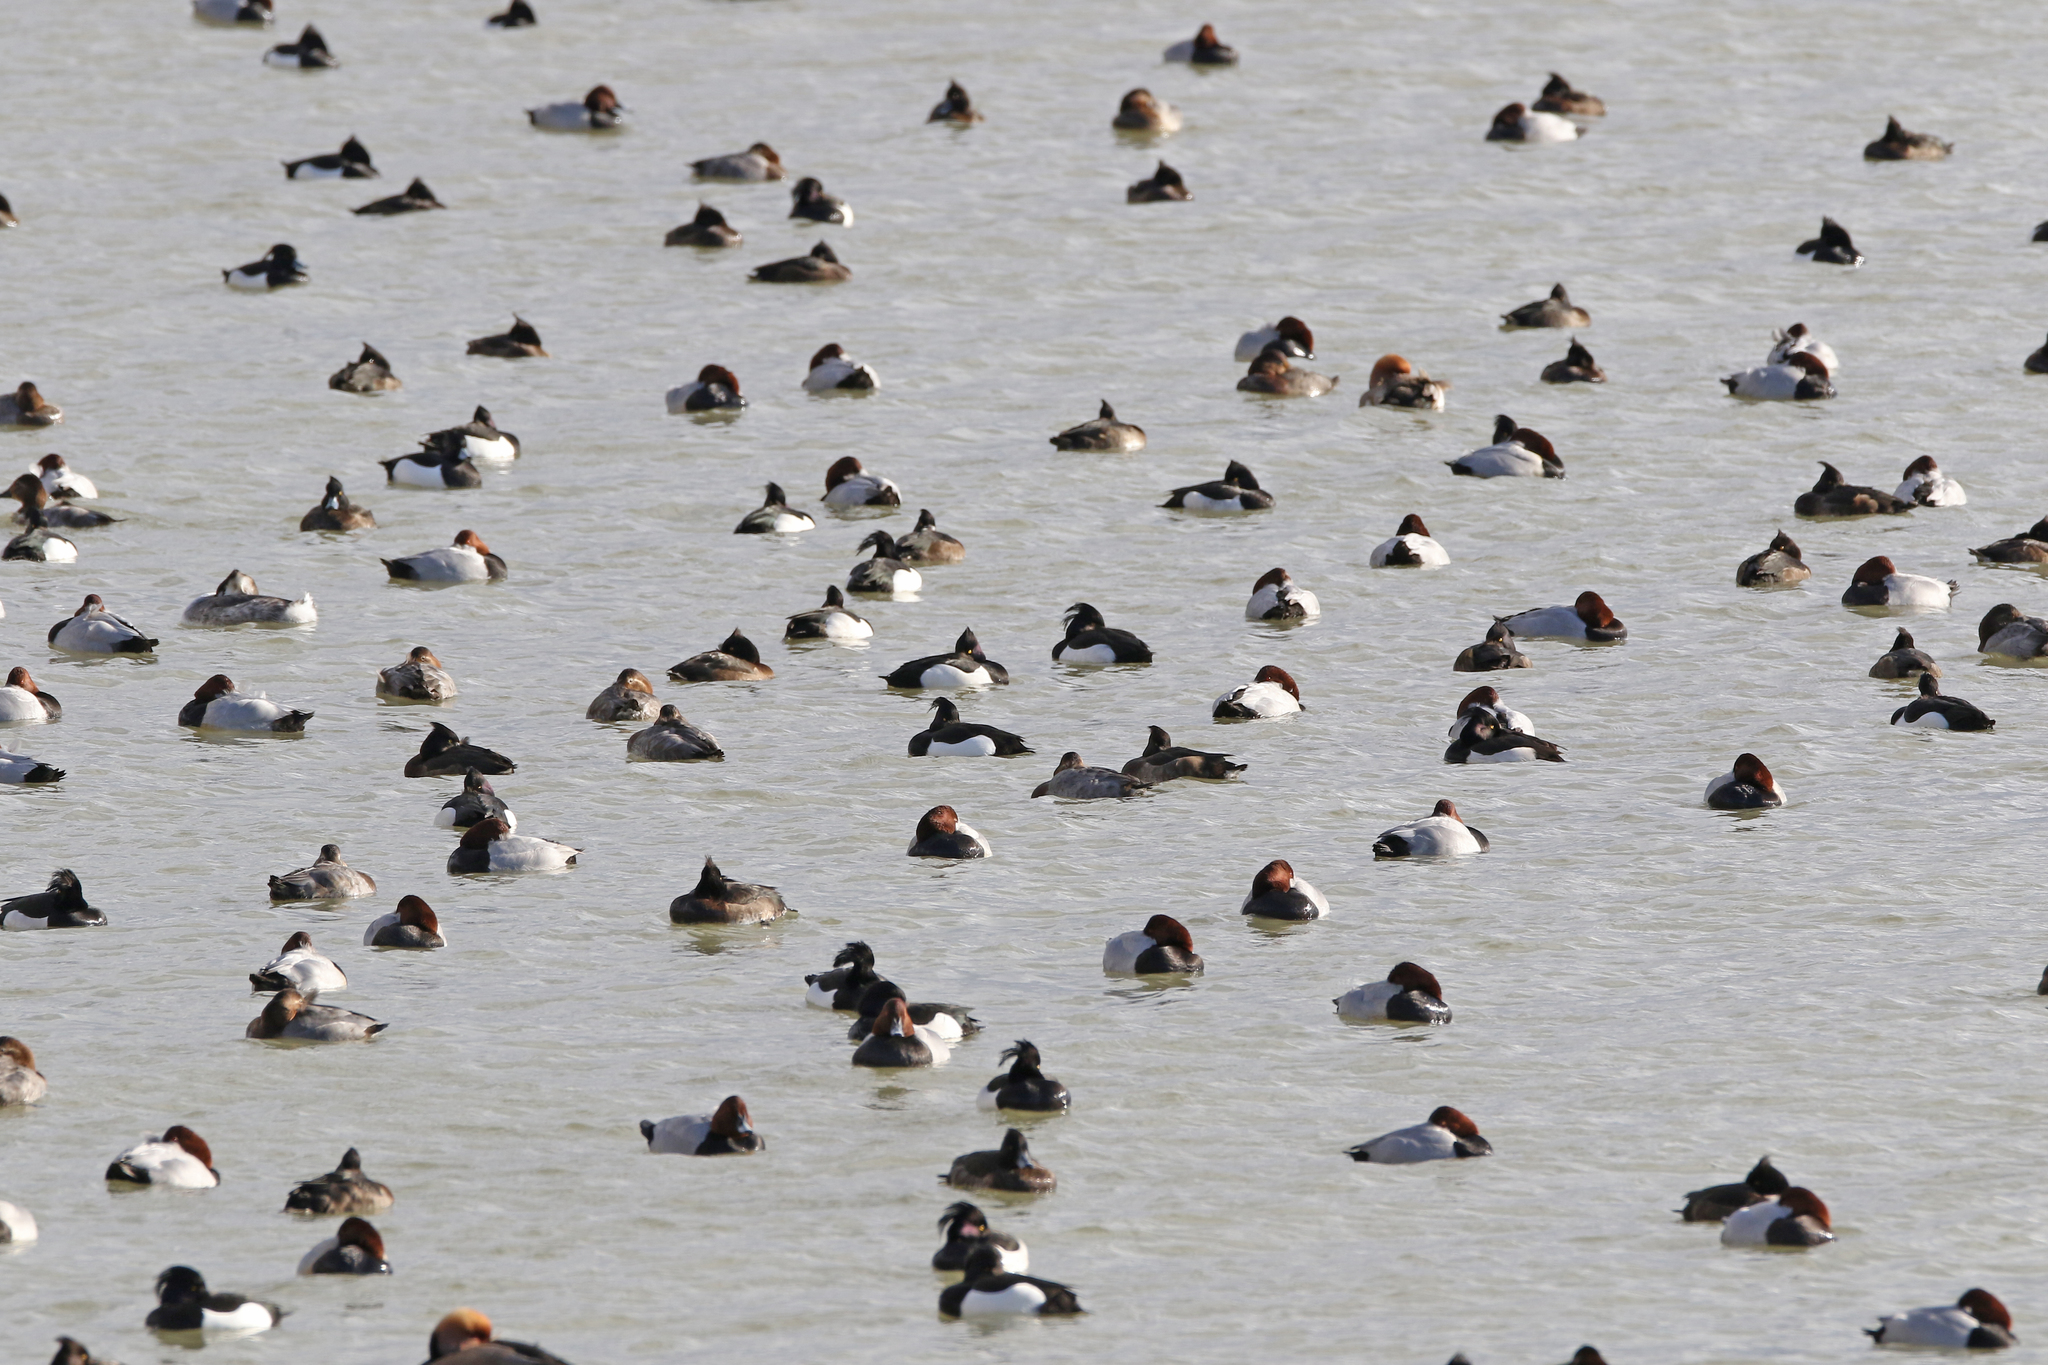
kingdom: Animalia
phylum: Chordata
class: Aves
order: Anseriformes
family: Anatidae
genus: Netta
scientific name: Netta rufina
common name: Red-crested pochard
